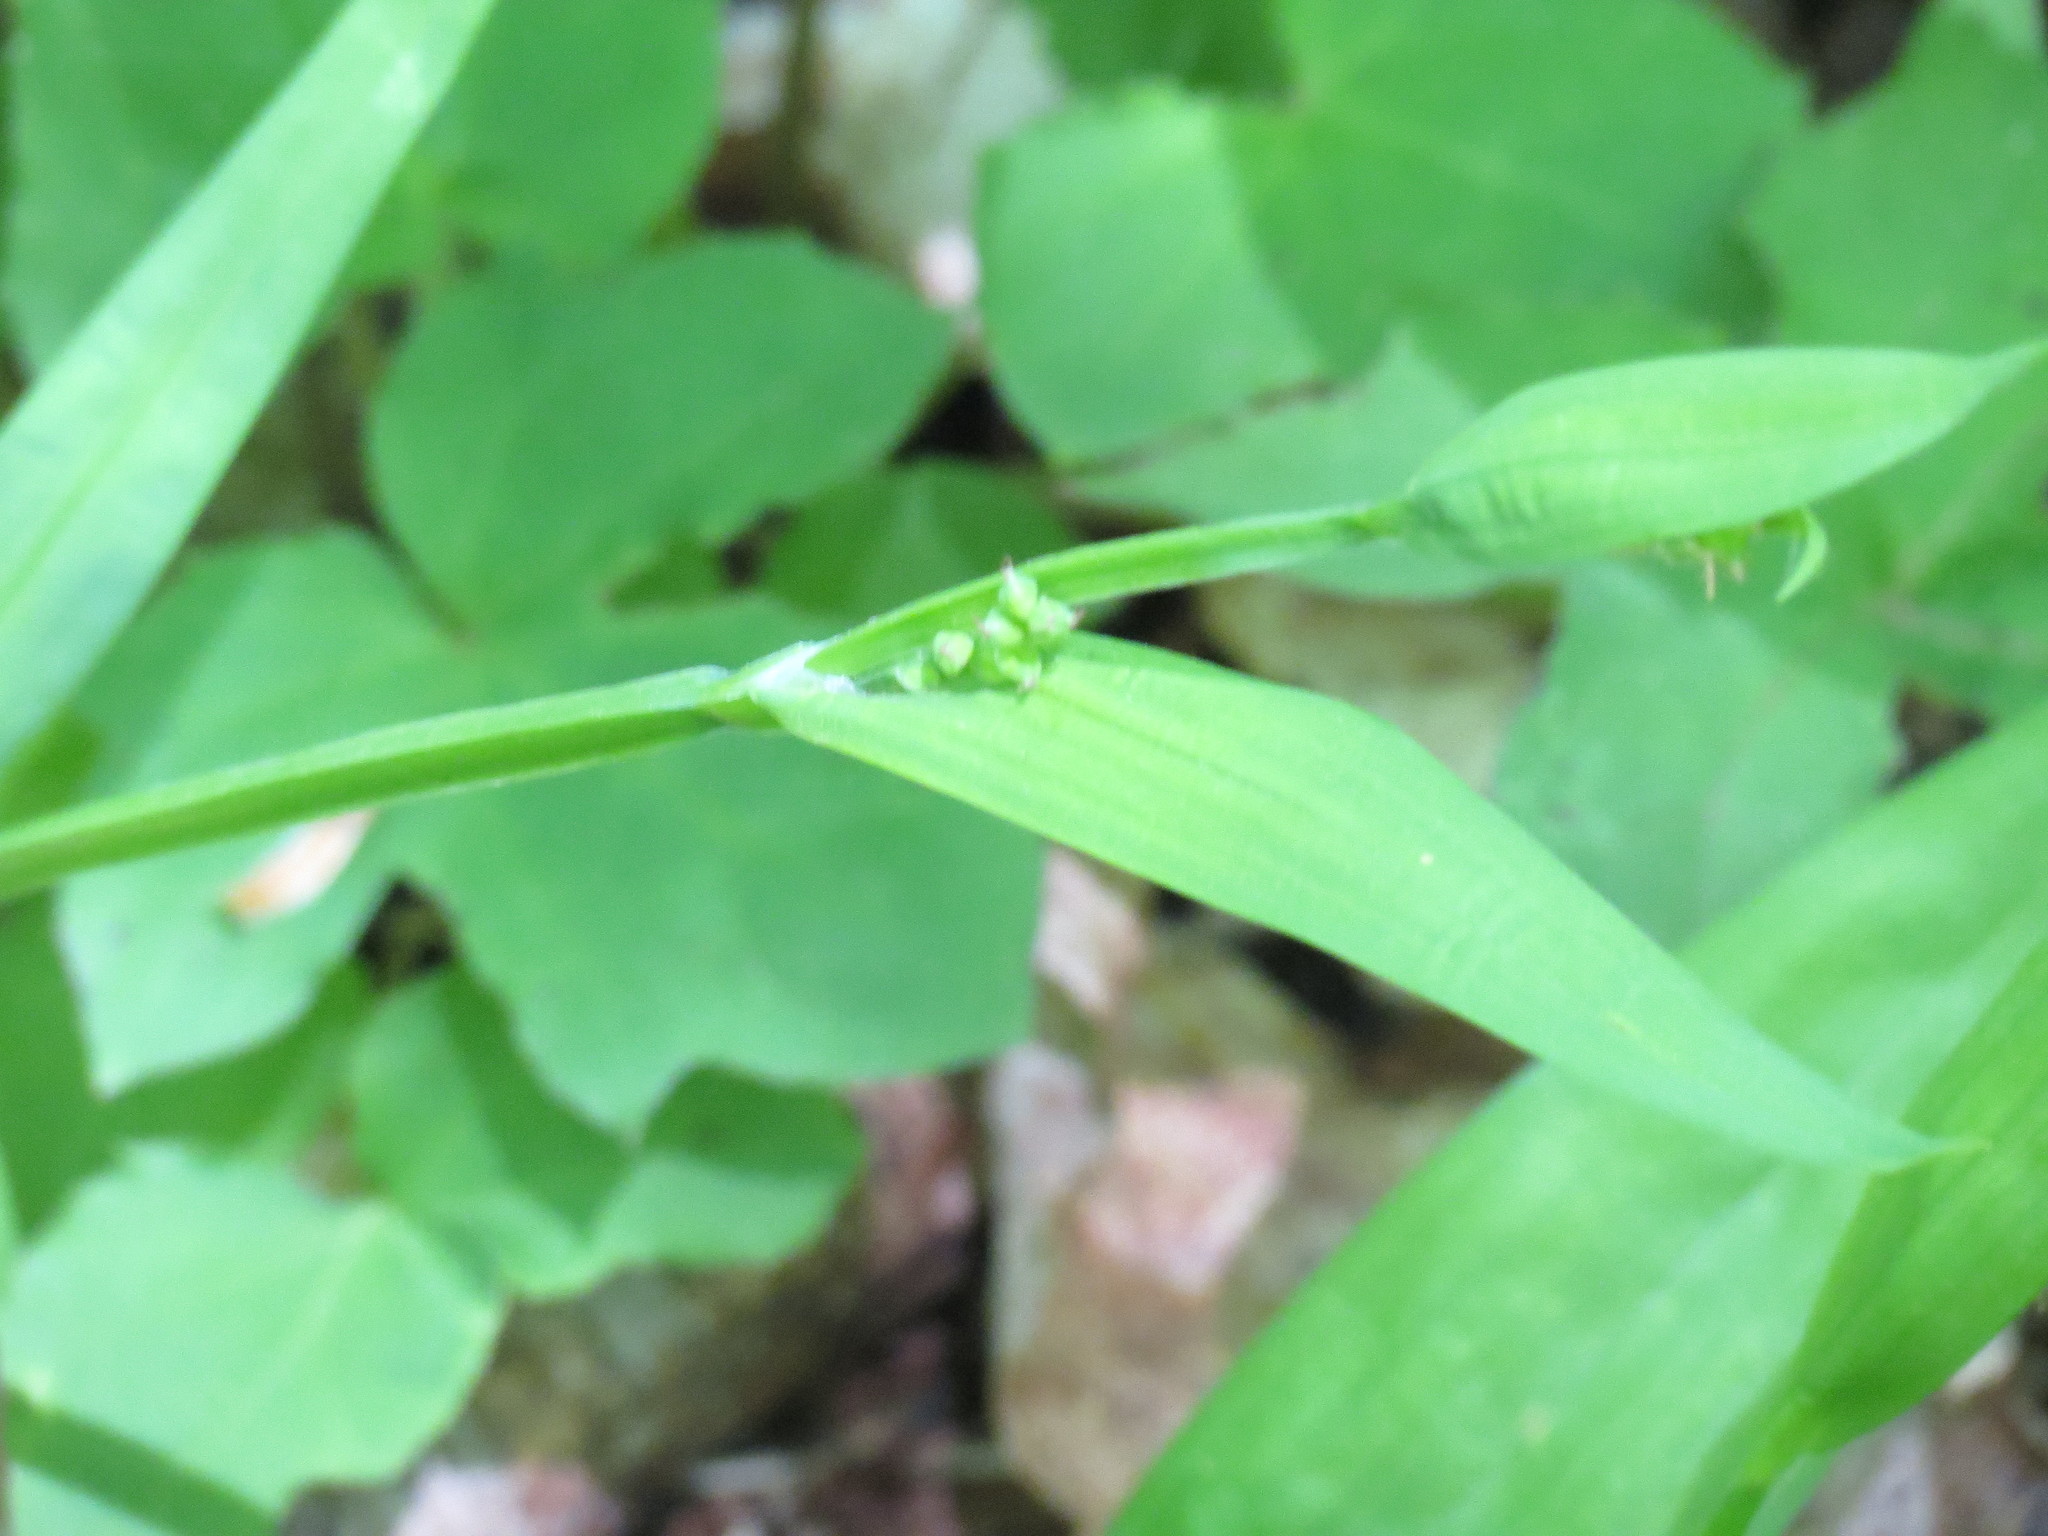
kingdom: Plantae
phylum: Tracheophyta
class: Liliopsida
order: Poales
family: Cyperaceae
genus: Carex
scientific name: Carex albursina
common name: Blunt-scale wood sedge
